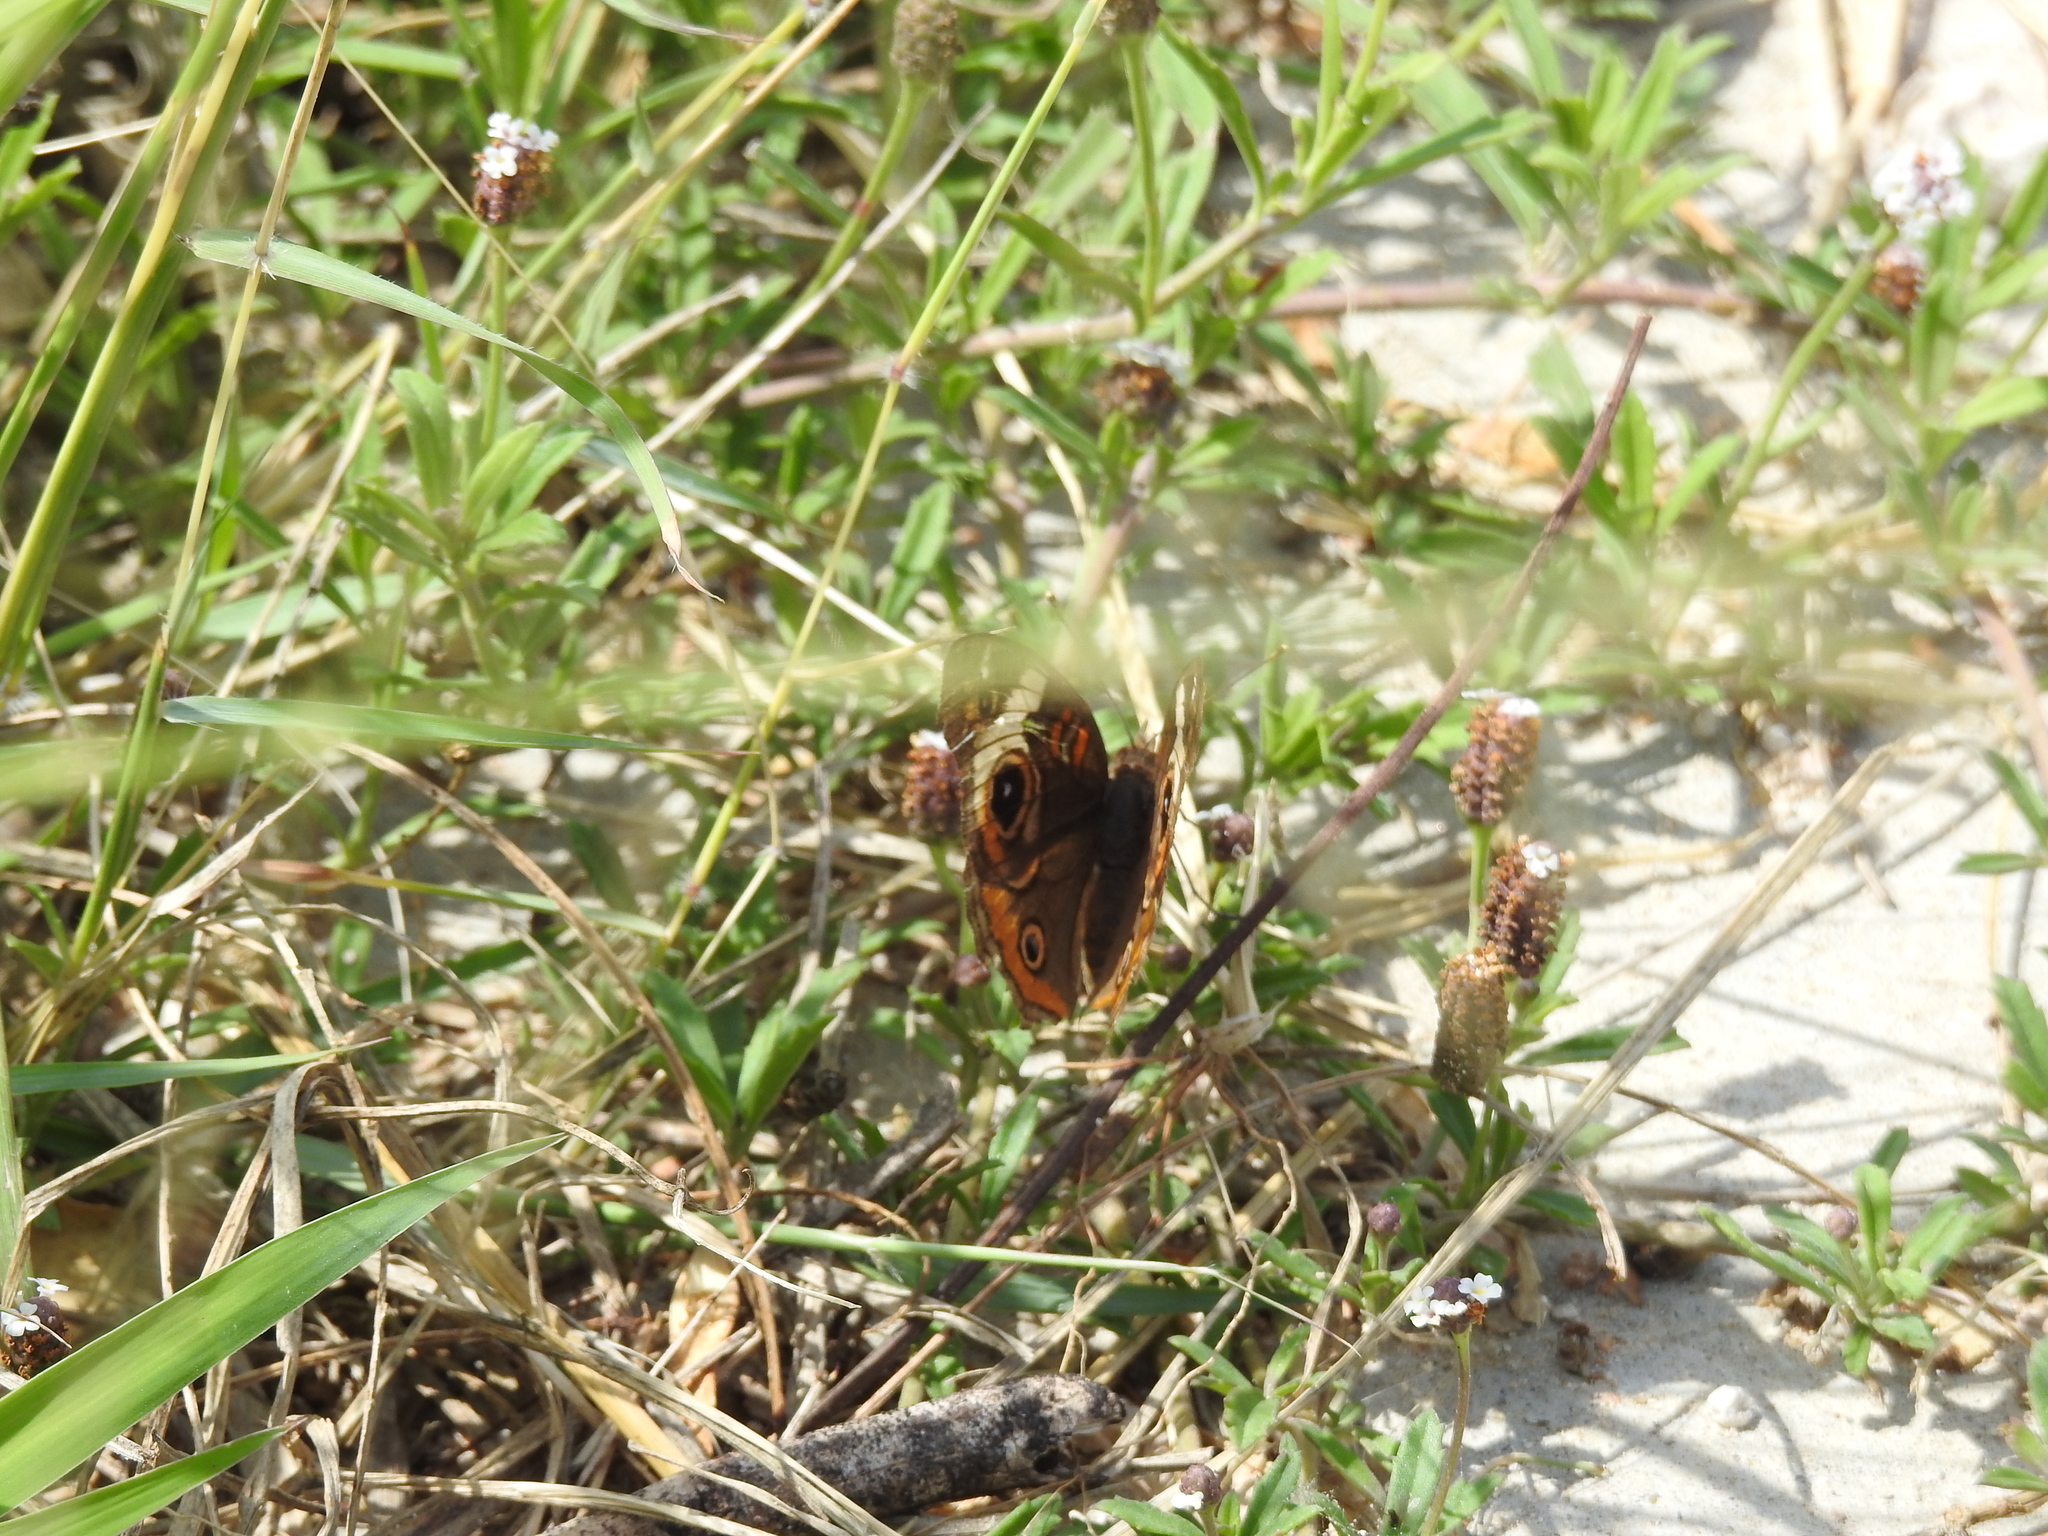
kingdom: Animalia
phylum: Arthropoda
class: Insecta
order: Lepidoptera
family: Nymphalidae
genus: Junonia
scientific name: Junonia coenia
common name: Common buckeye
